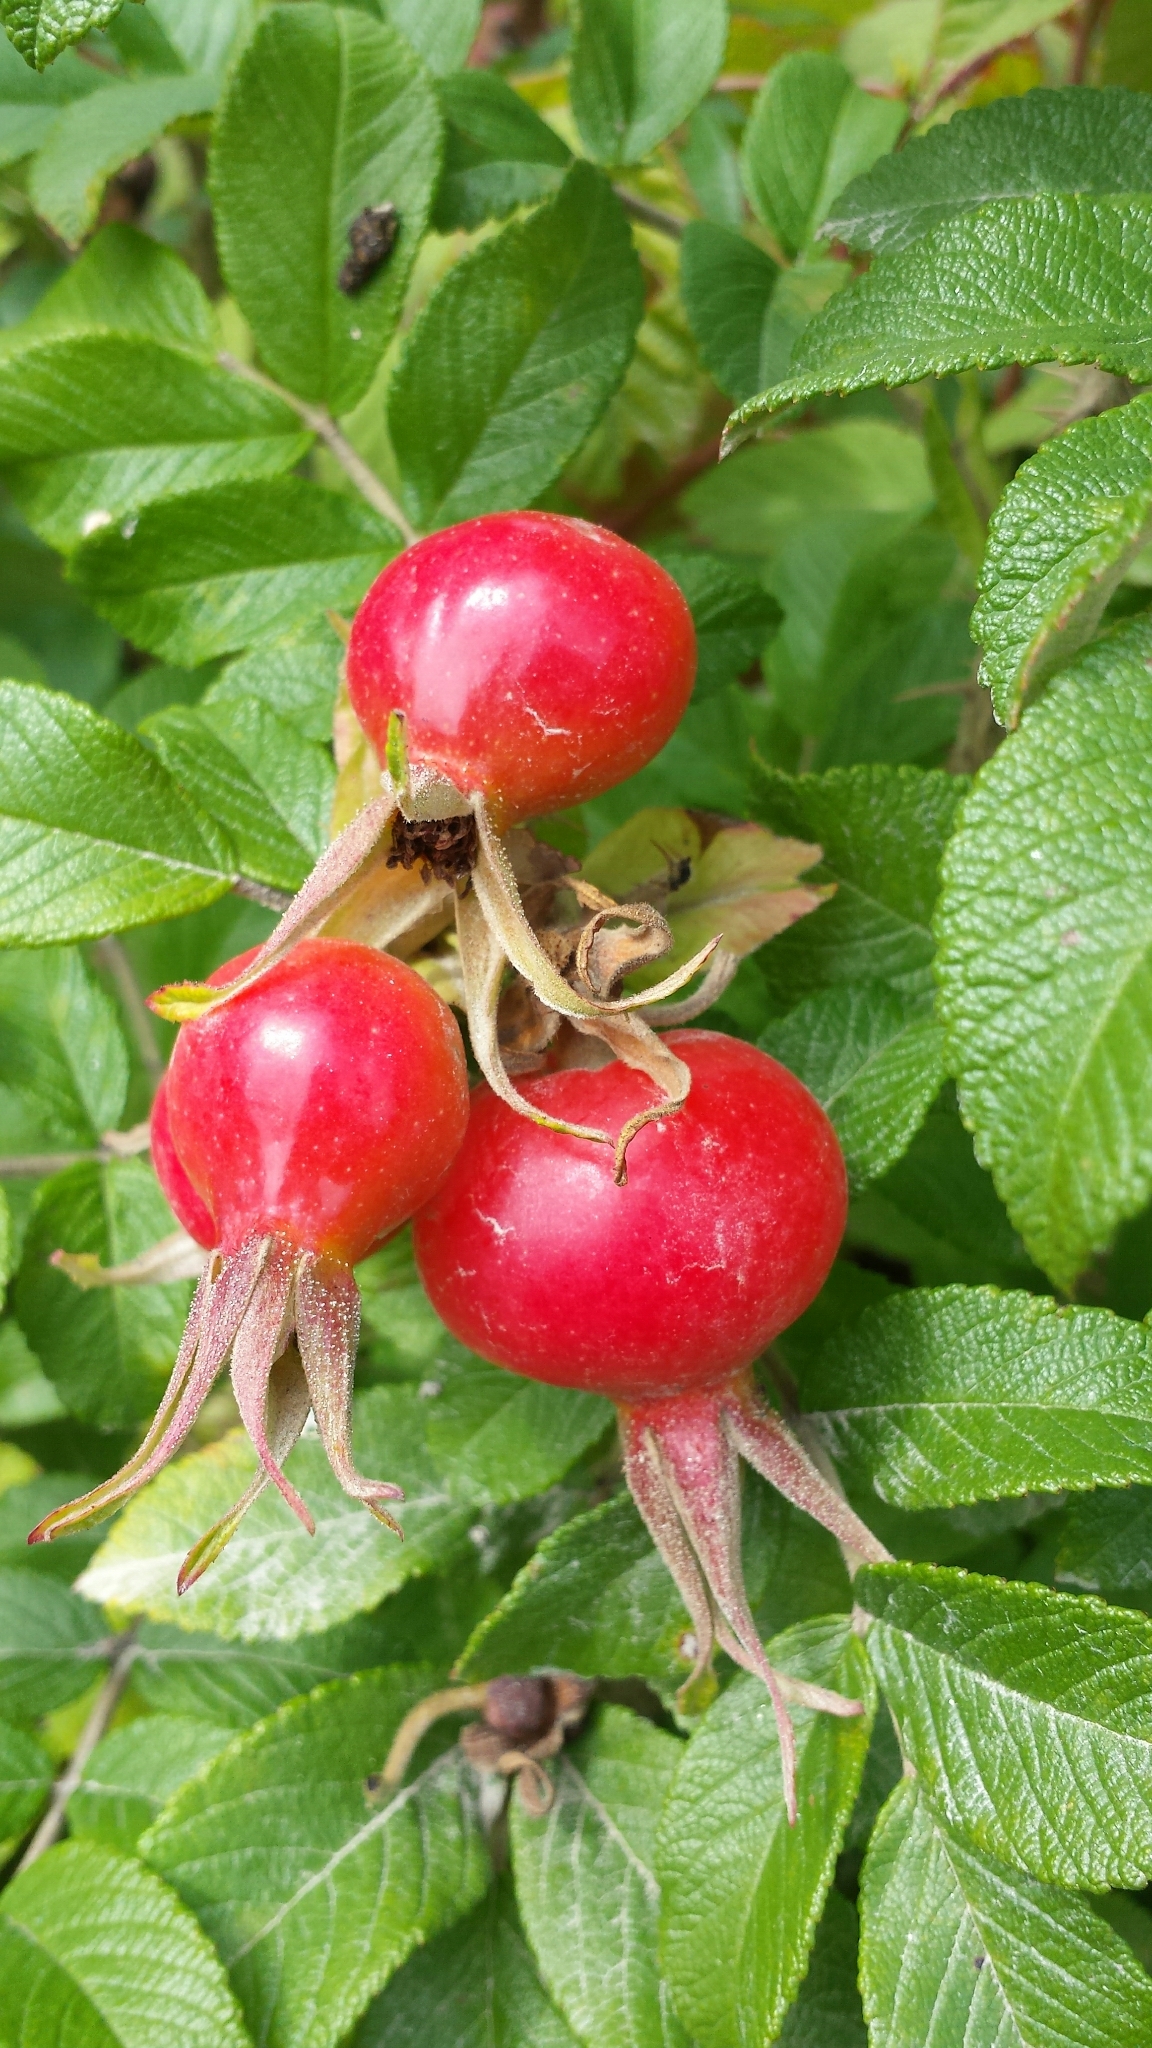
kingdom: Plantae
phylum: Tracheophyta
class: Magnoliopsida
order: Rosales
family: Rosaceae
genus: Rosa
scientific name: Rosa rugosa
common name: Japanese rose
